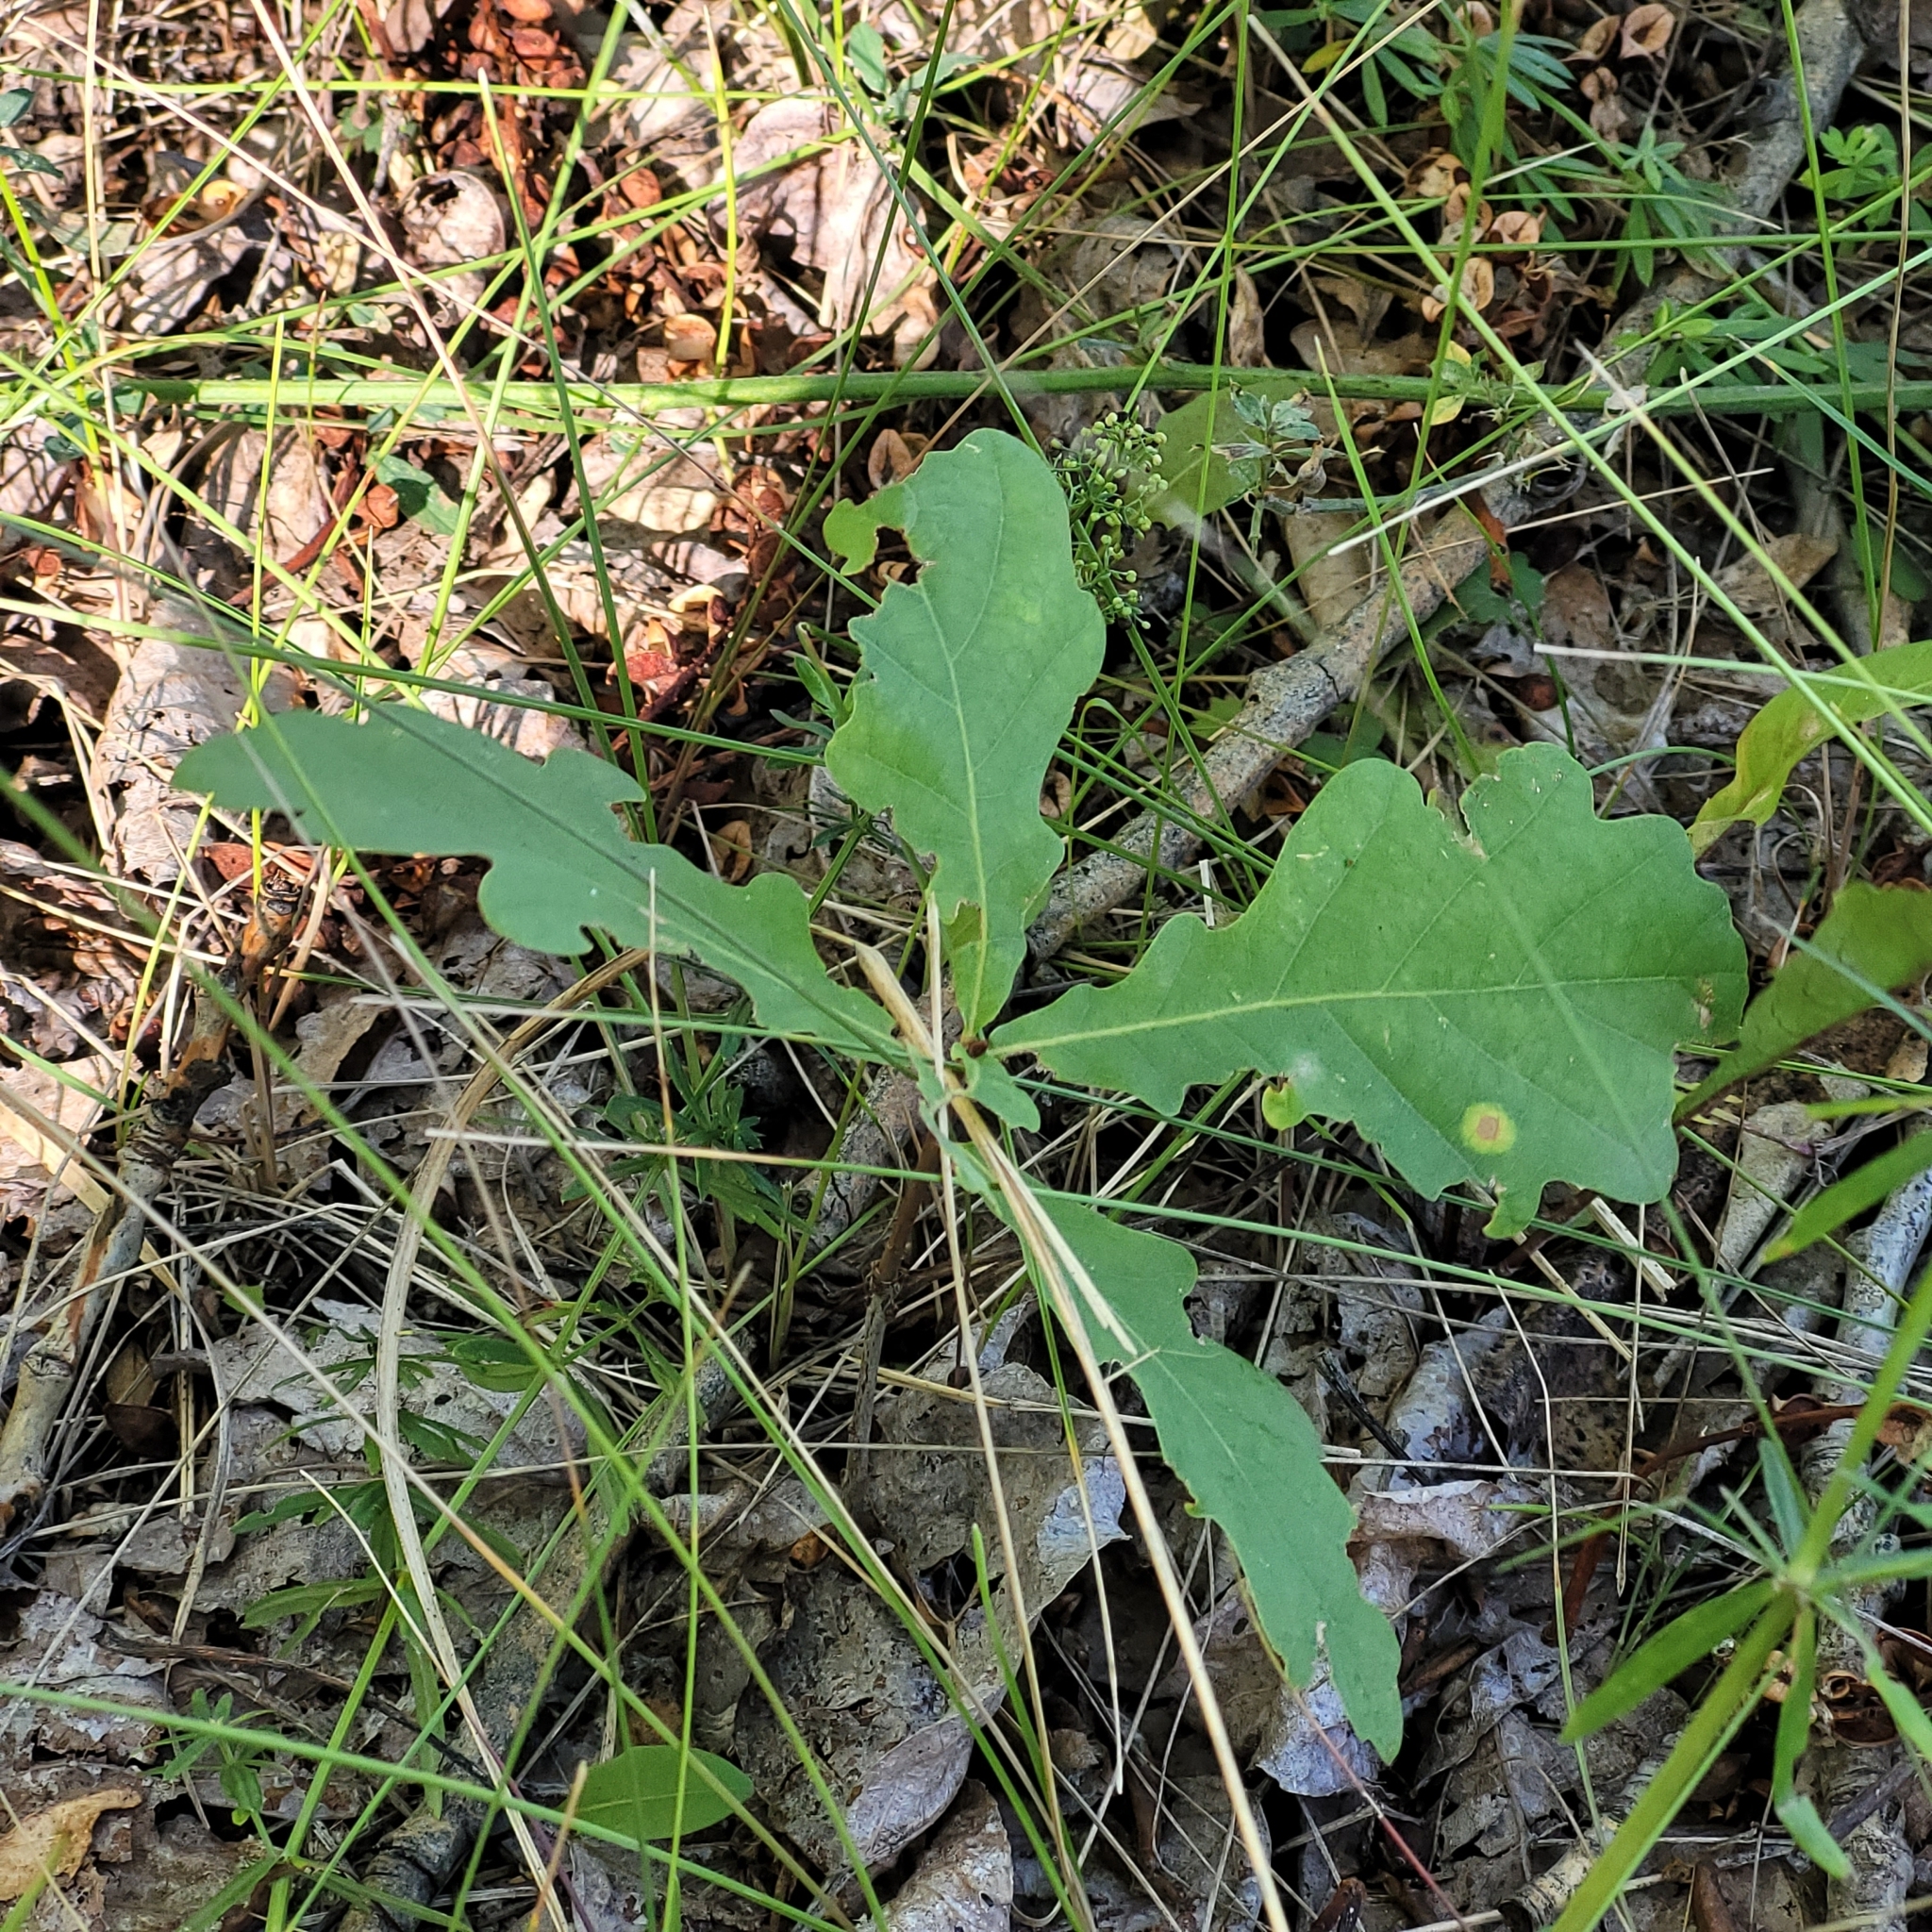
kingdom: Plantae
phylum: Tracheophyta
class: Magnoliopsida
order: Fagales
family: Fagaceae
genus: Quercus
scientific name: Quercus robur
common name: Pedunculate oak
